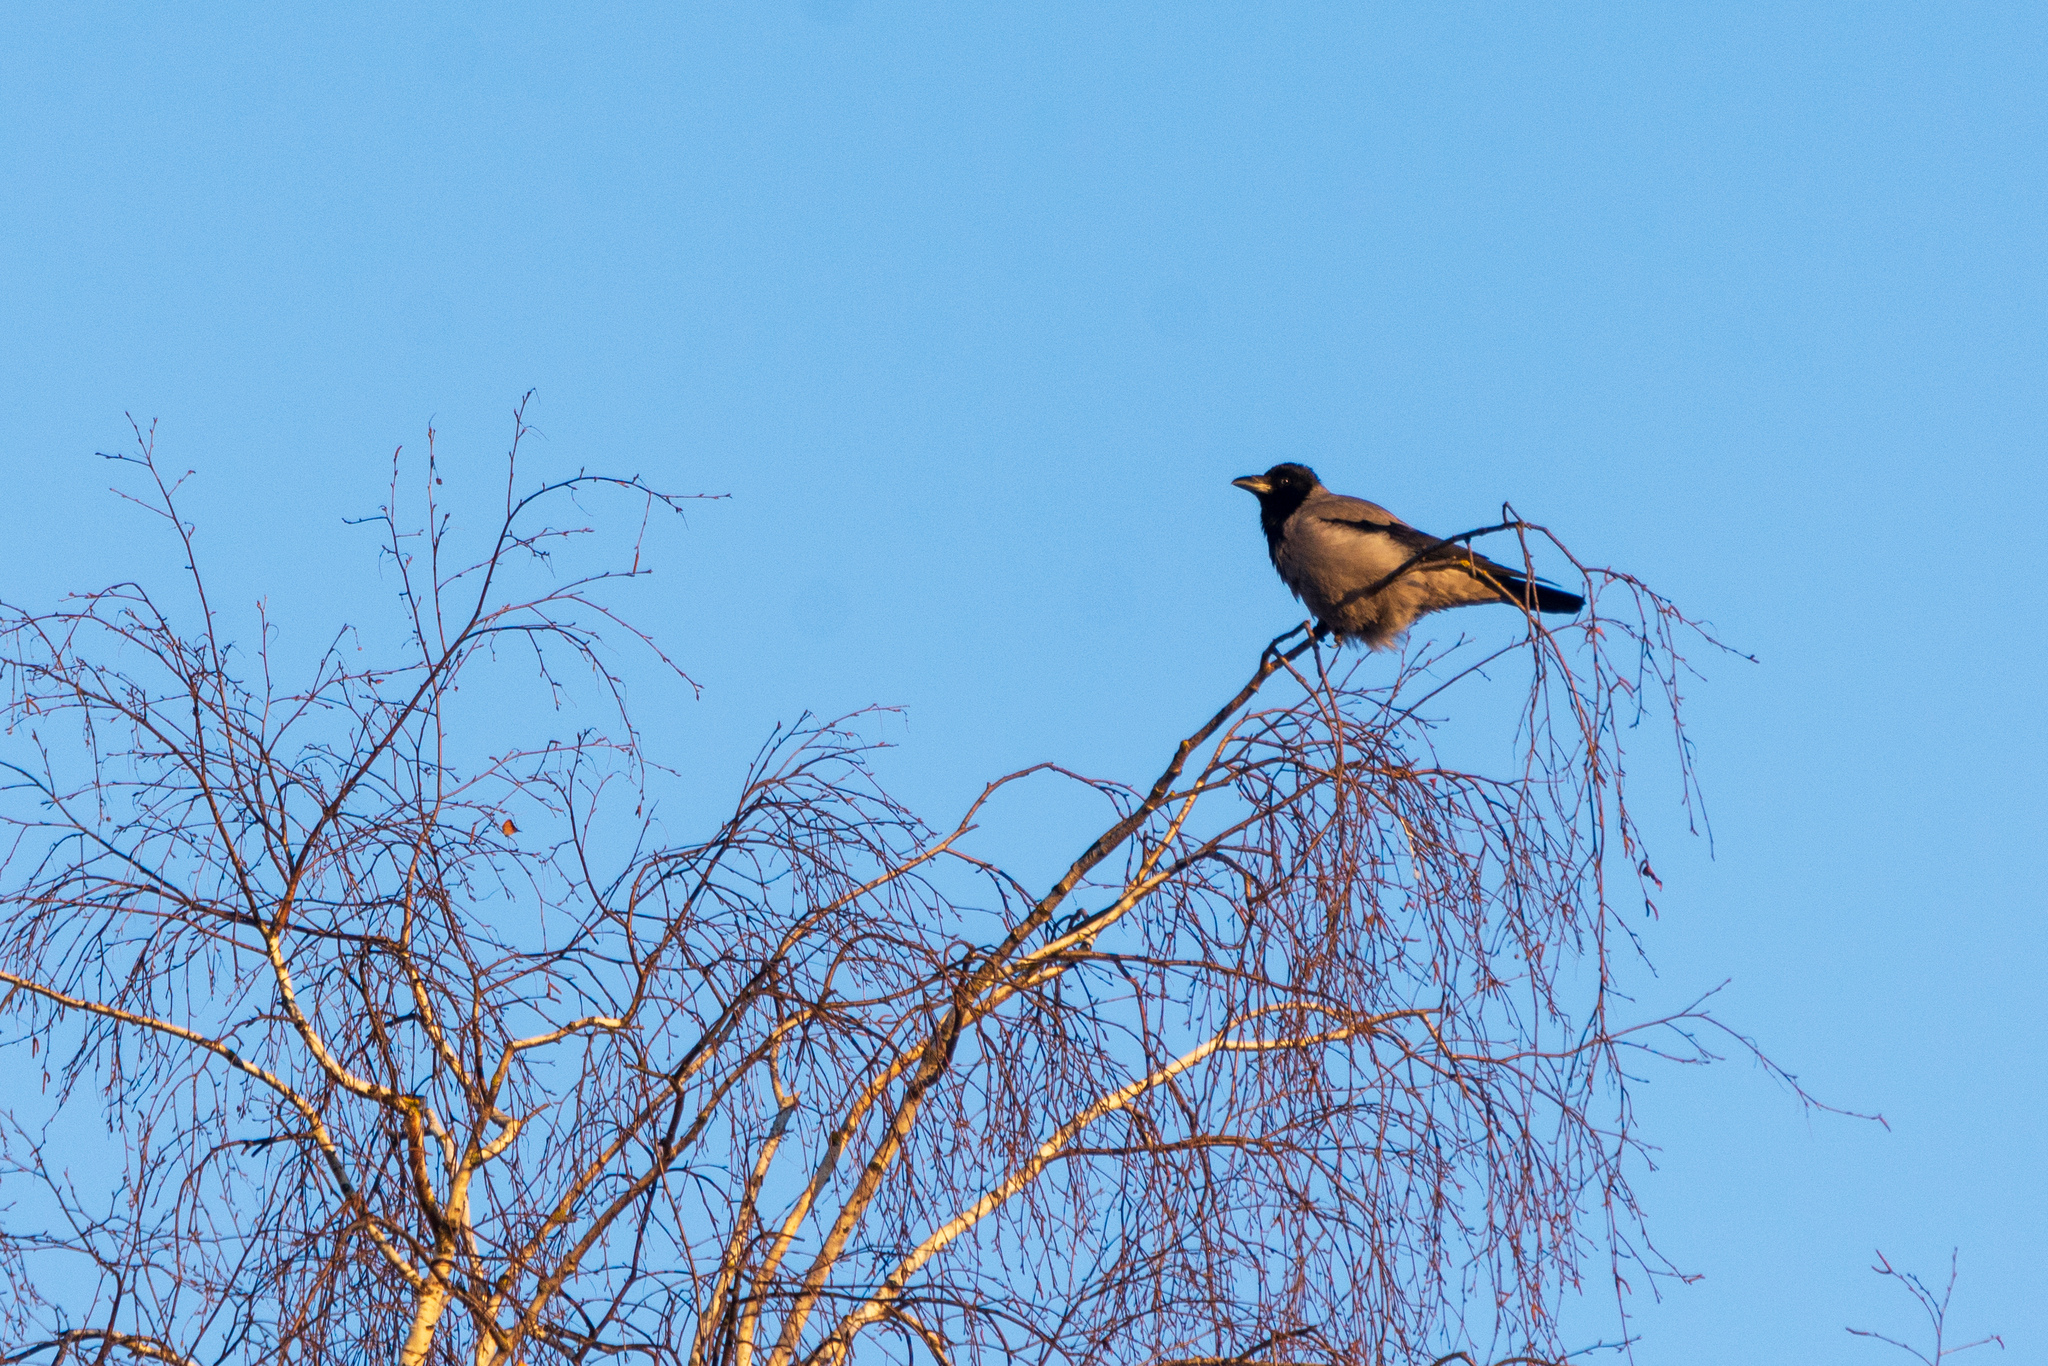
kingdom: Animalia
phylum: Chordata
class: Aves
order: Passeriformes
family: Corvidae
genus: Corvus
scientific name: Corvus cornix
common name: Hooded crow
